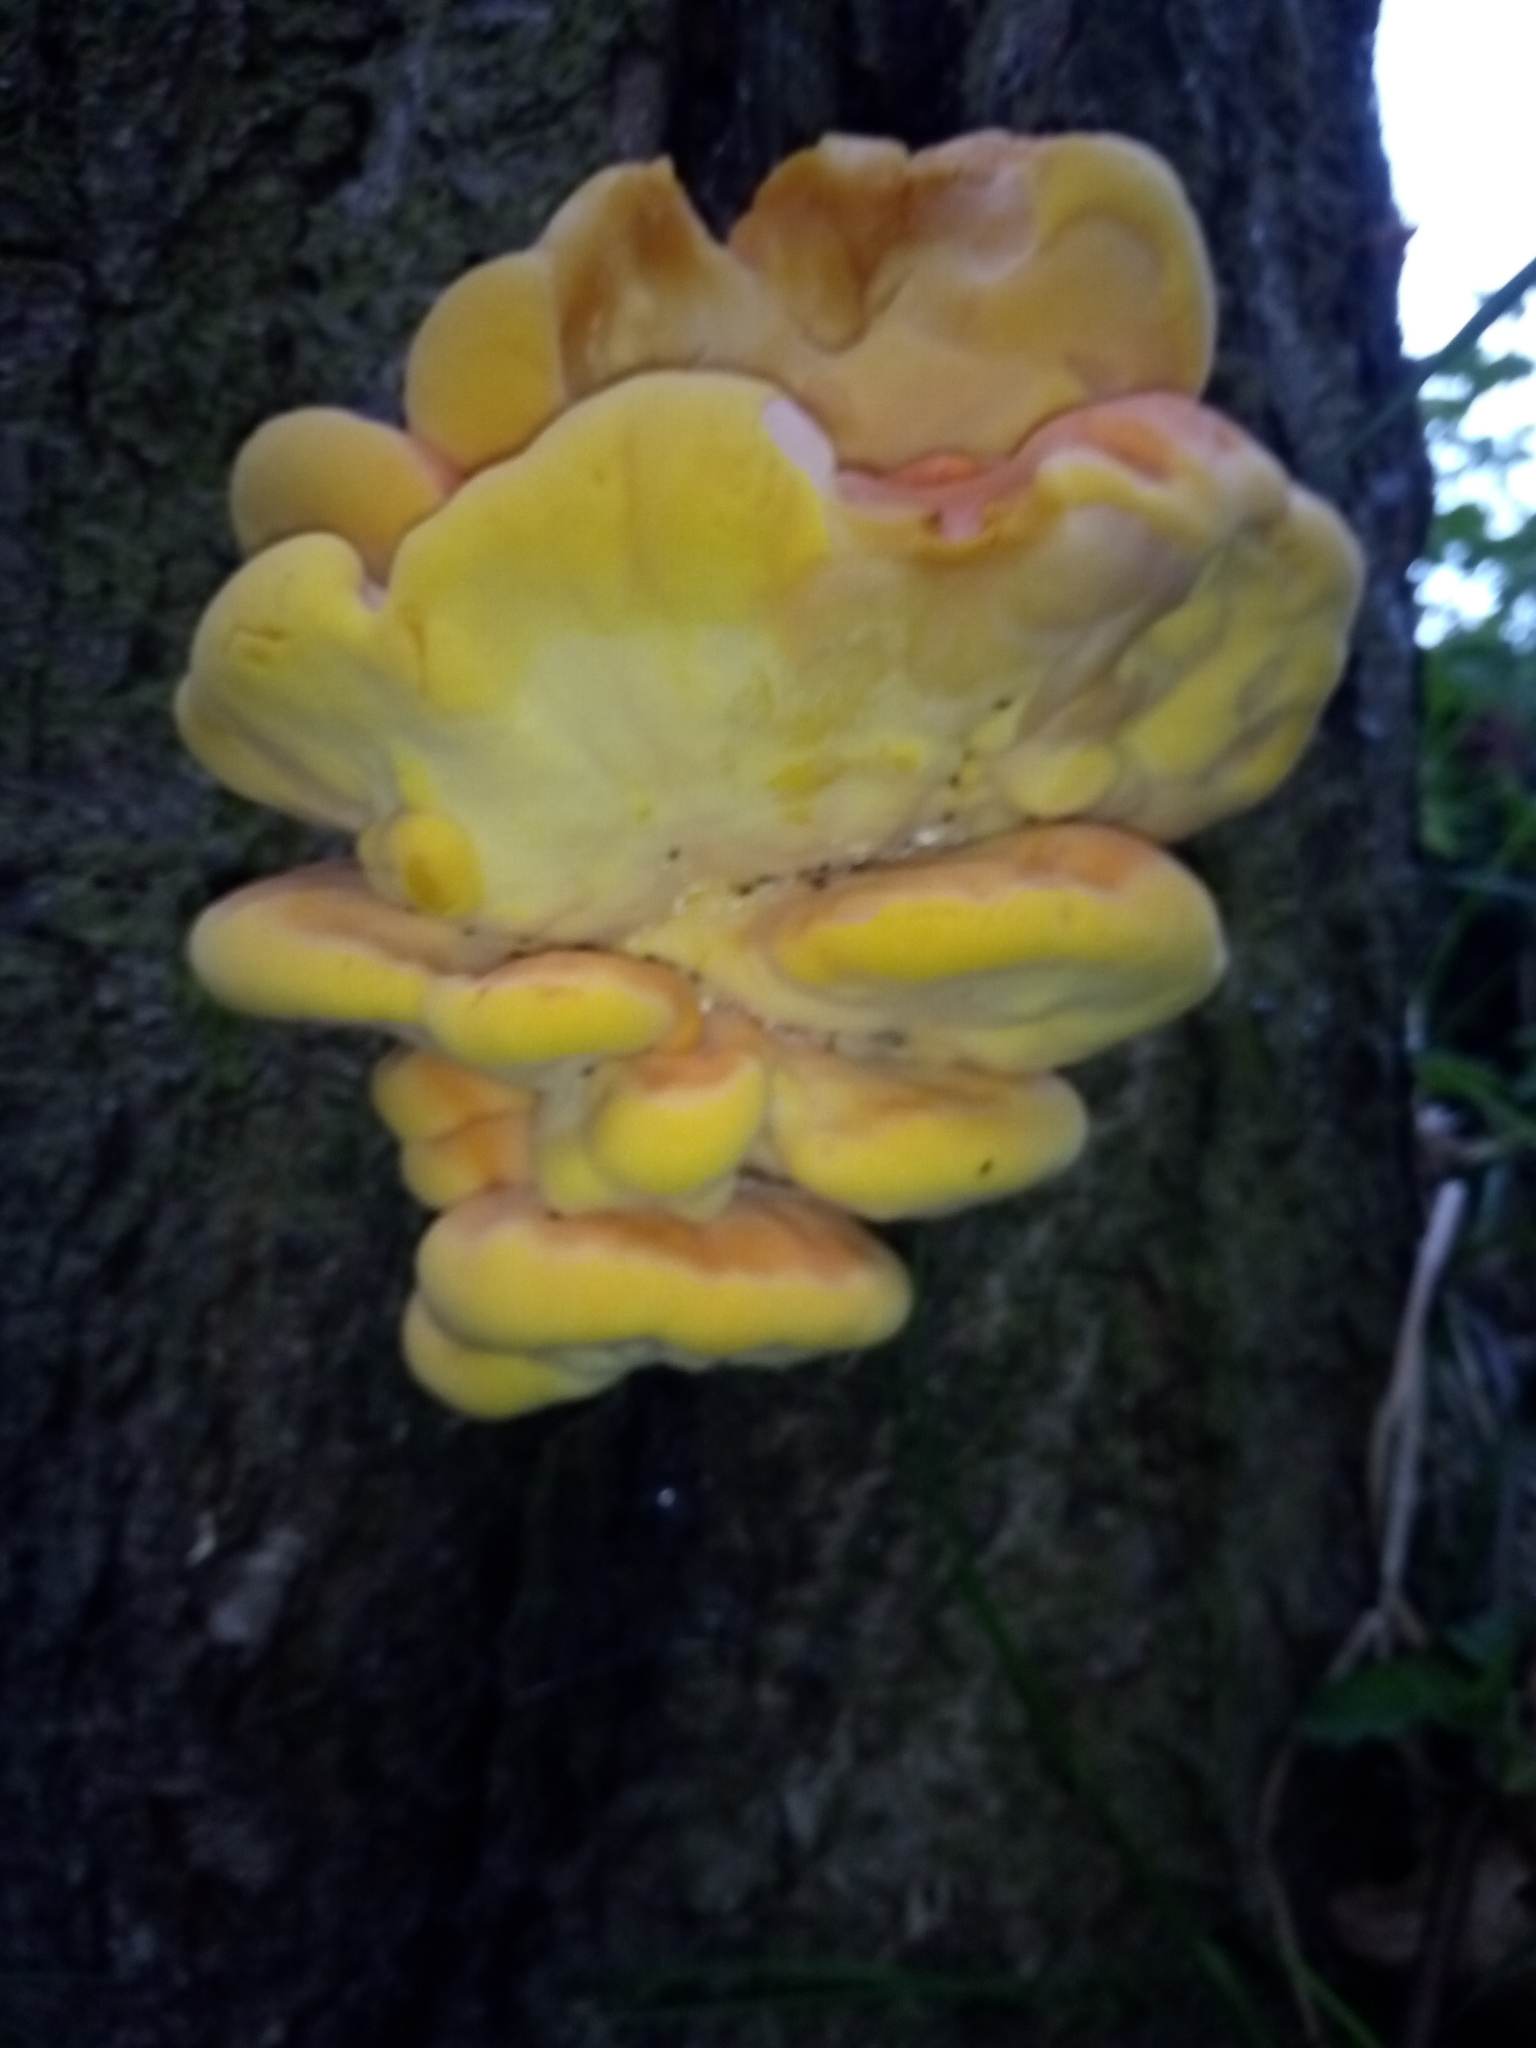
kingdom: Fungi
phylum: Basidiomycota
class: Agaricomycetes
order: Polyporales
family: Laetiporaceae
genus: Laetiporus
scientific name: Laetiporus sulphureus
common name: Chicken of the woods
